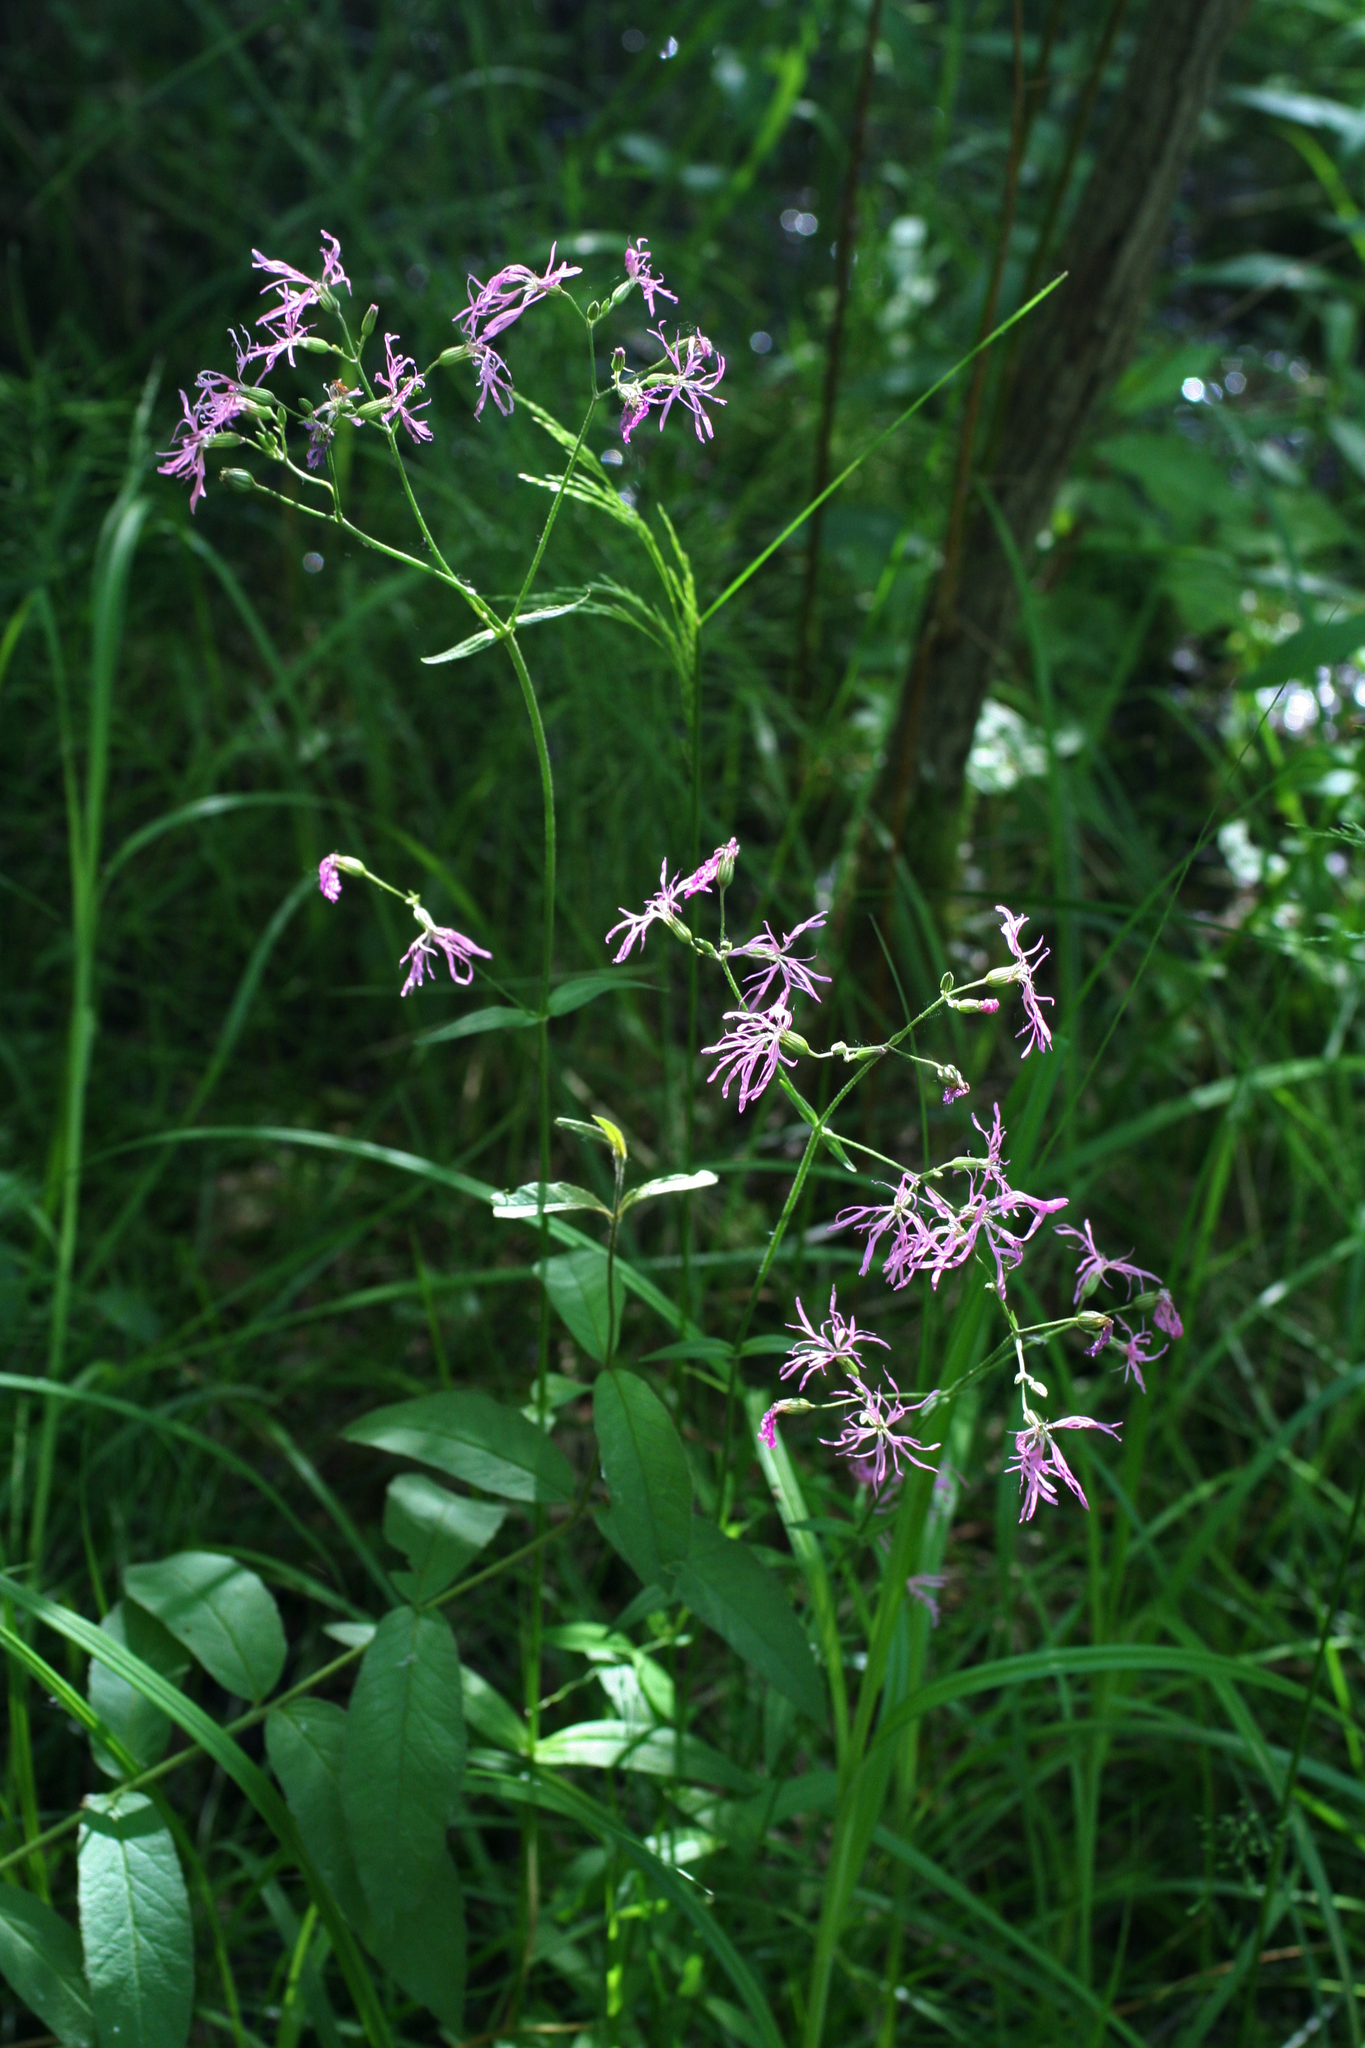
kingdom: Plantae
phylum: Tracheophyta
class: Magnoliopsida
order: Caryophyllales
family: Caryophyllaceae
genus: Silene
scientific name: Silene flos-cuculi
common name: Ragged-robin
